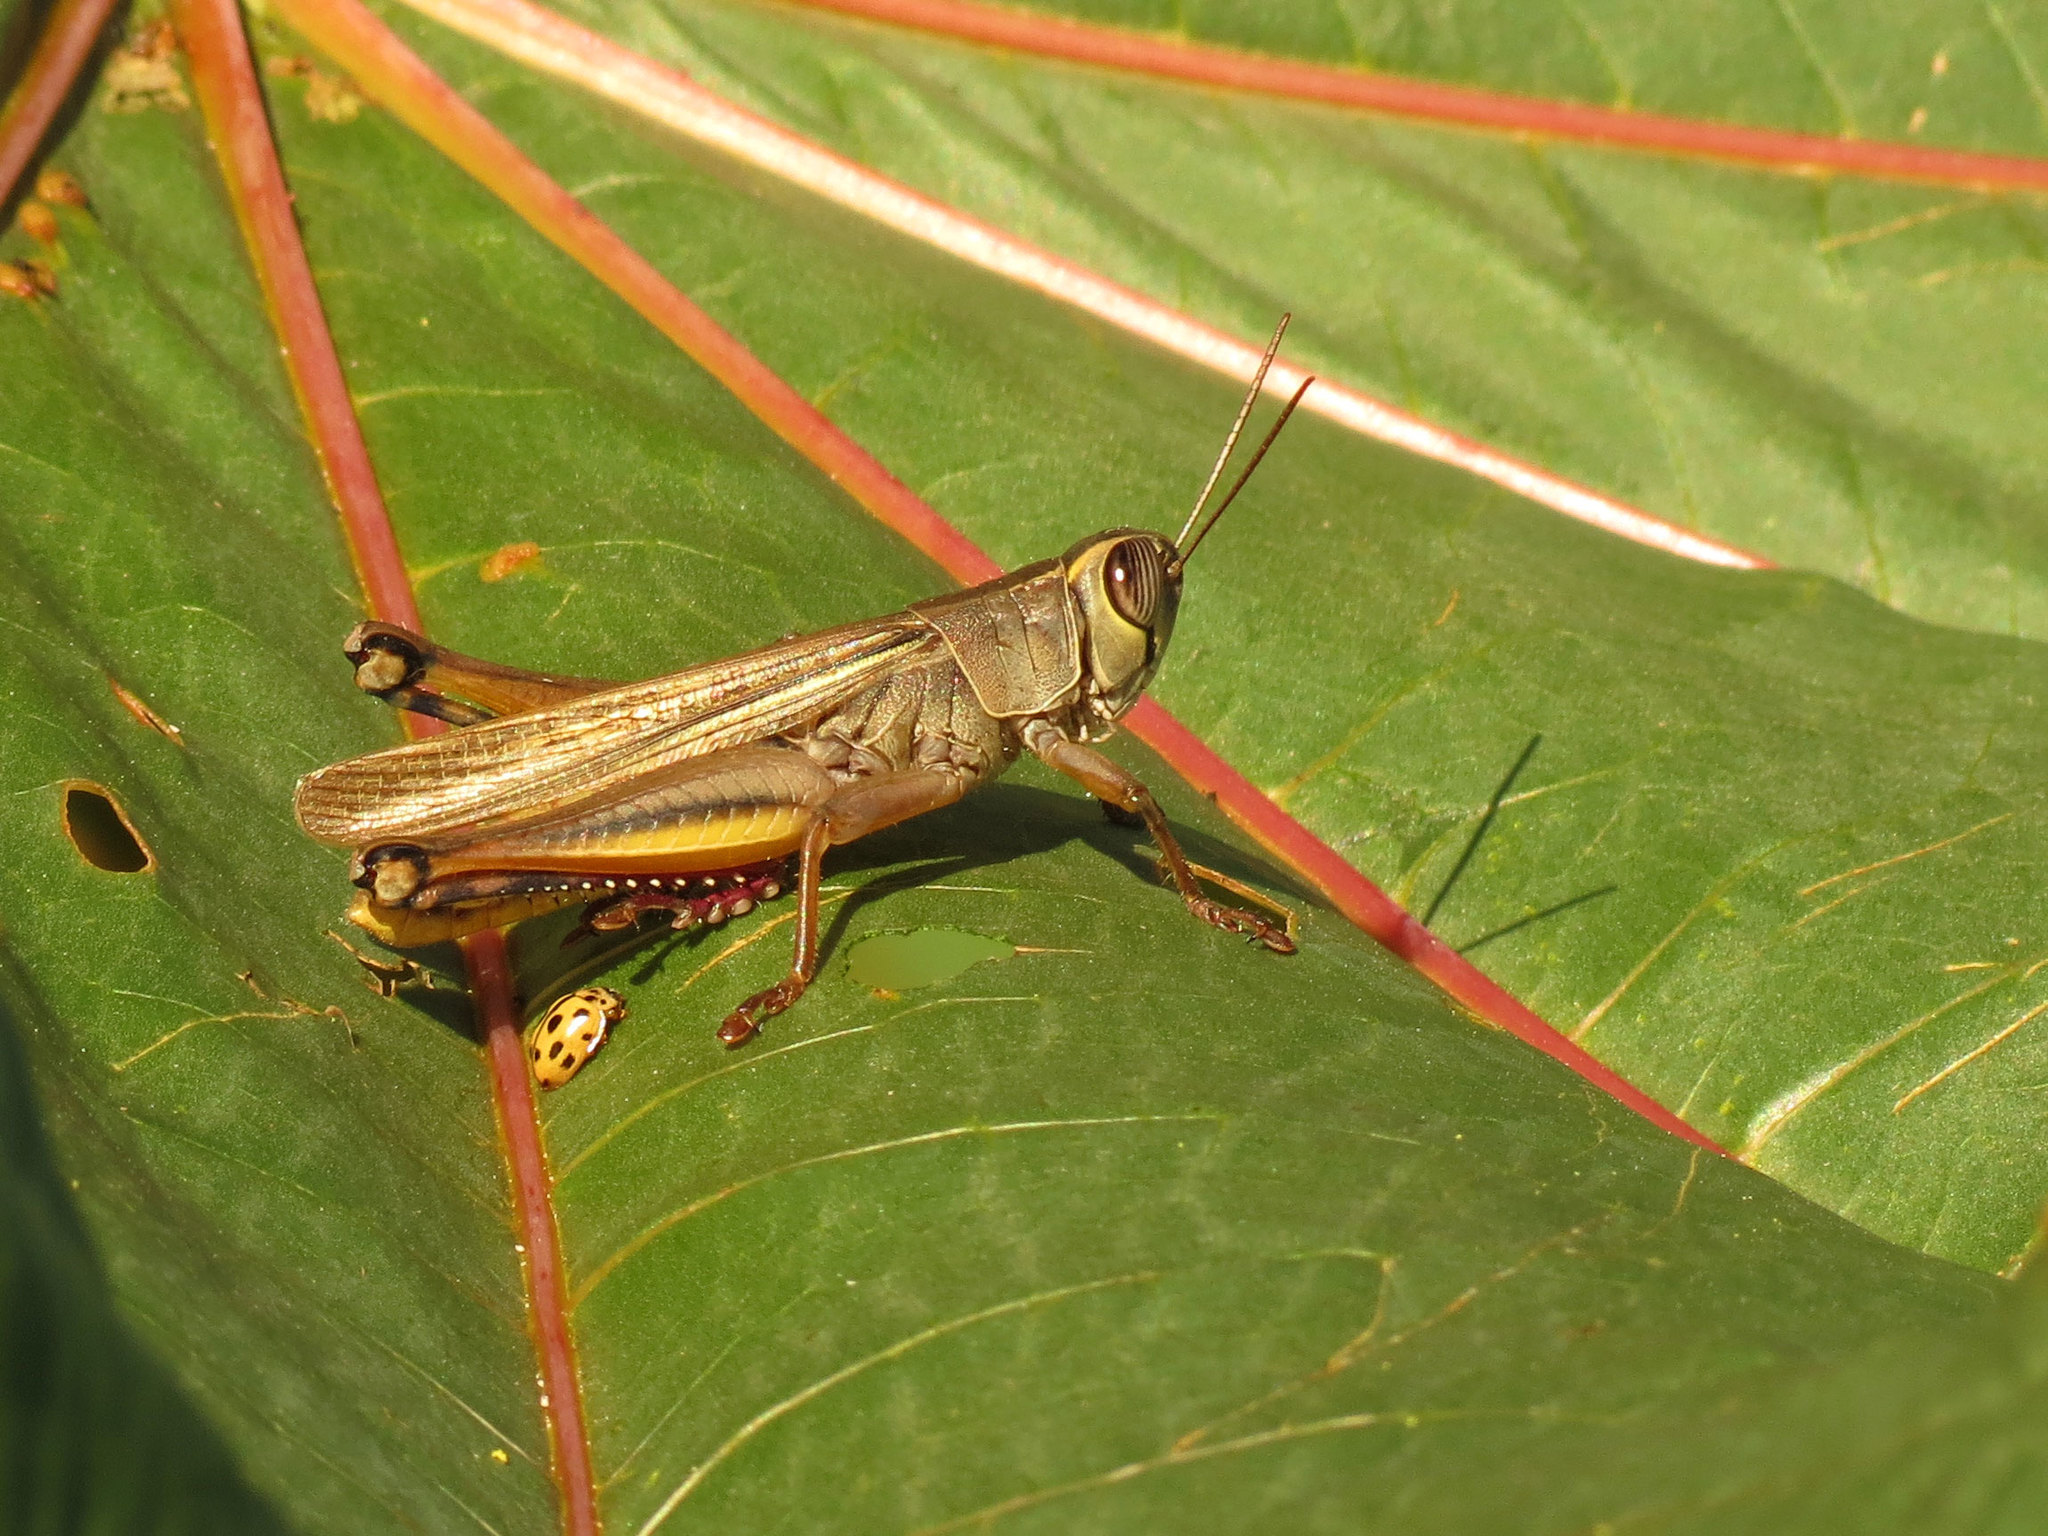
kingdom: Animalia
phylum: Arthropoda
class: Insecta
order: Orthoptera
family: Acrididae
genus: Eyprepocnemis
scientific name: Eyprepocnemis plorans
